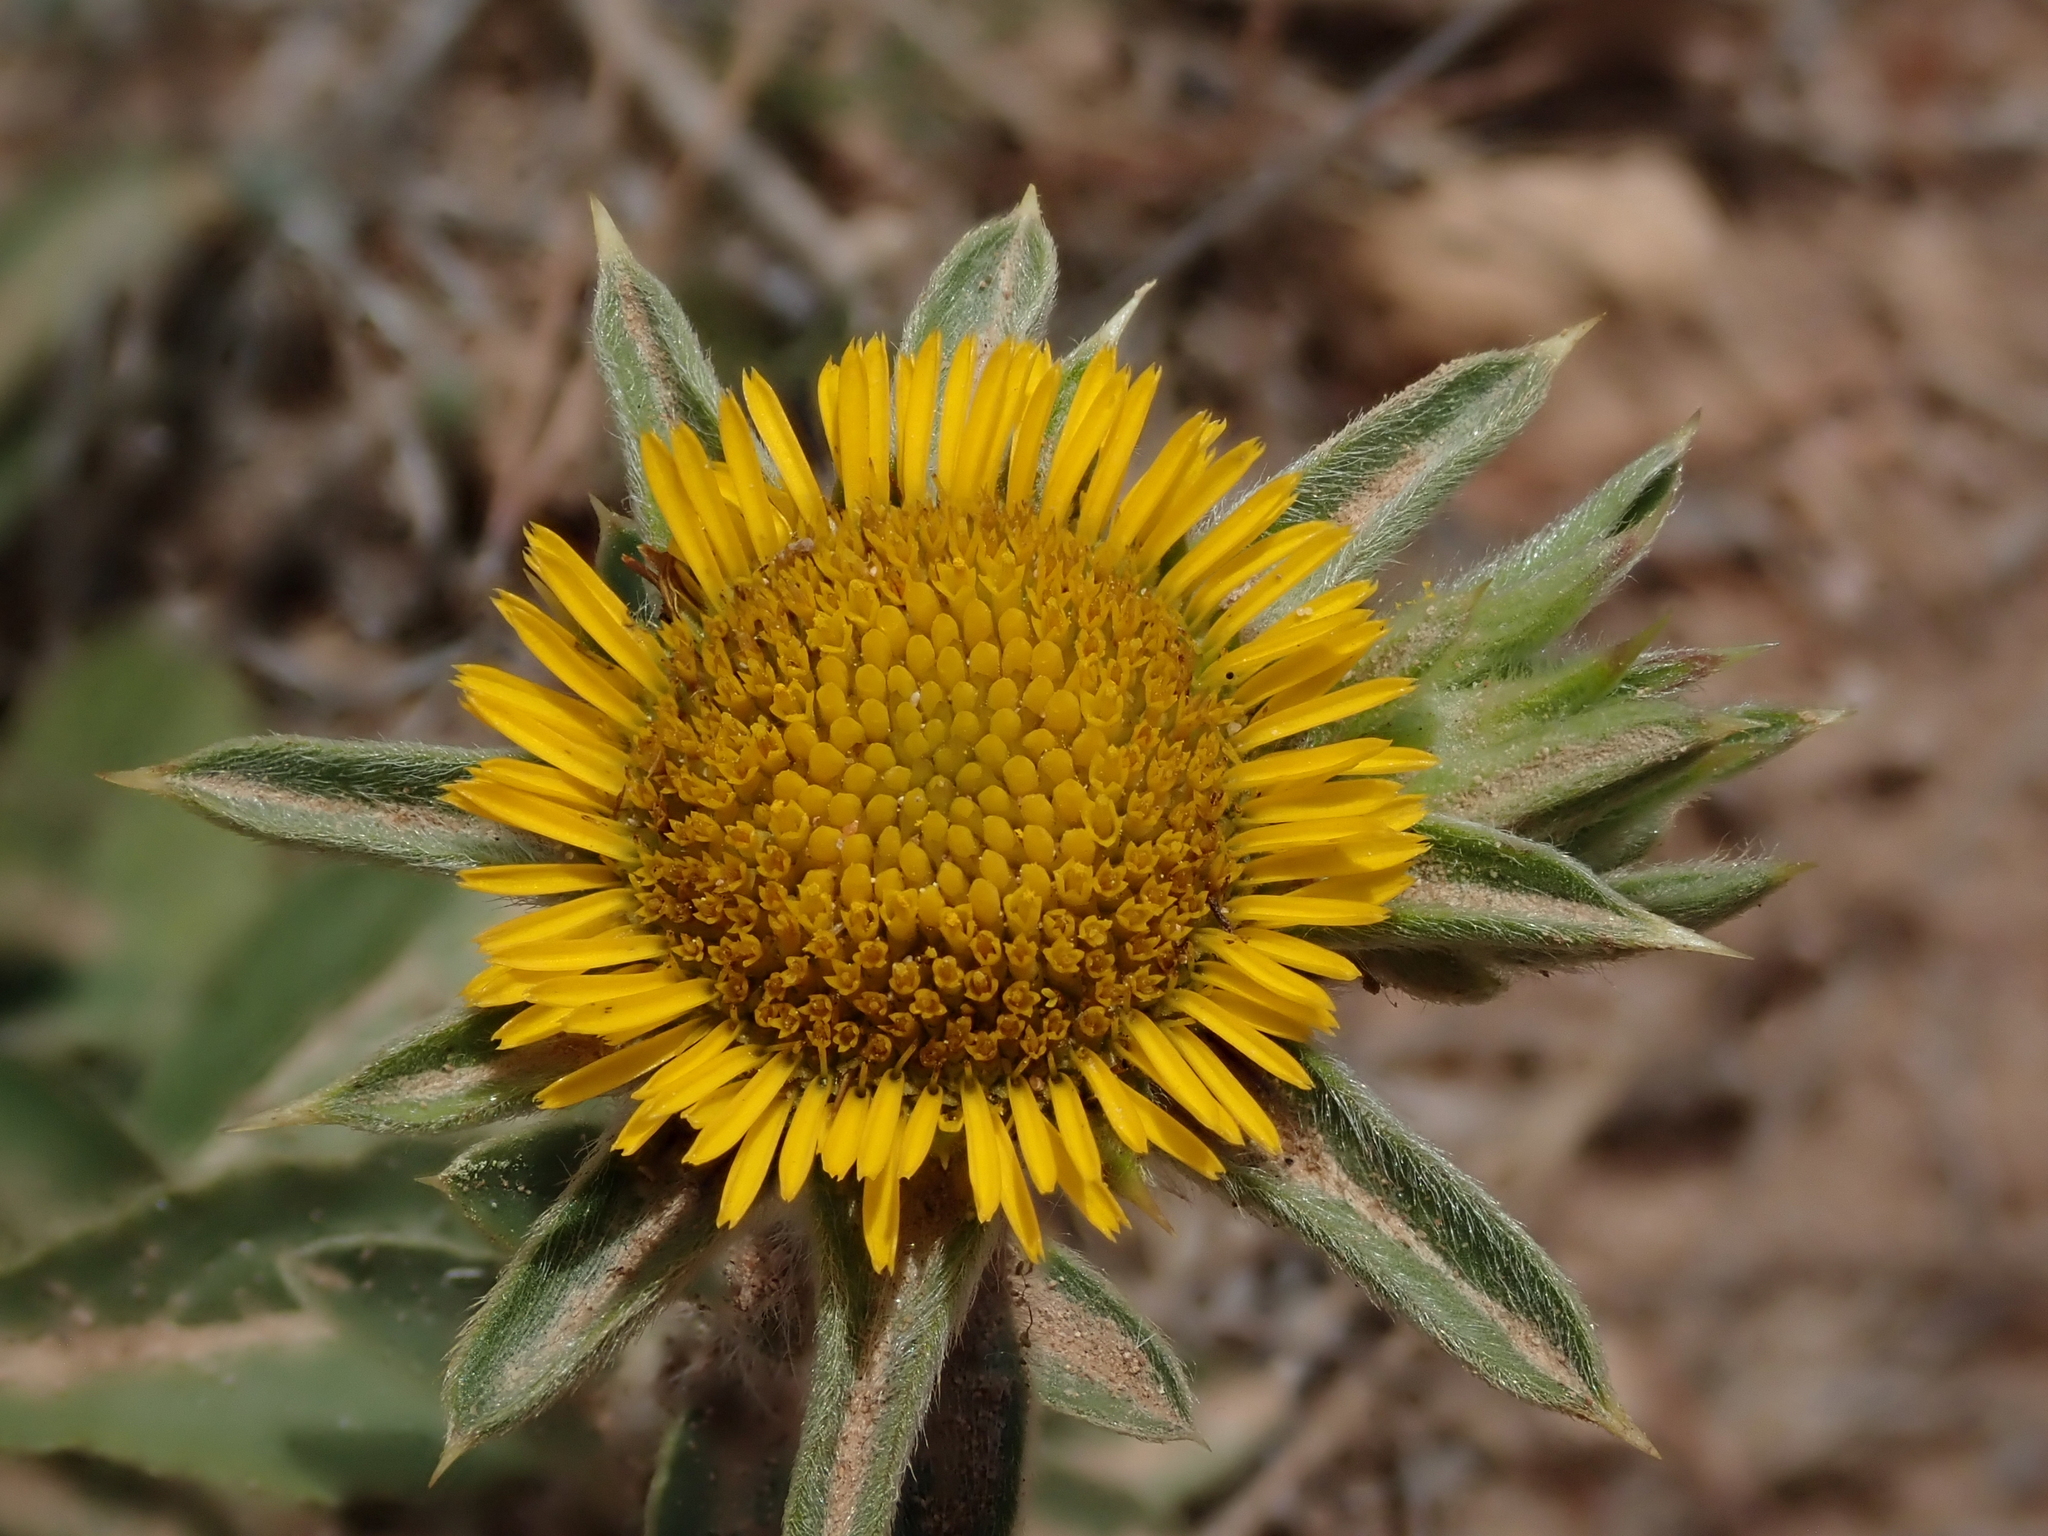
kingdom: Plantae
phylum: Tracheophyta
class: Magnoliopsida
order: Asterales
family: Asteraceae
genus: Pallenis
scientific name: Pallenis spinosa
